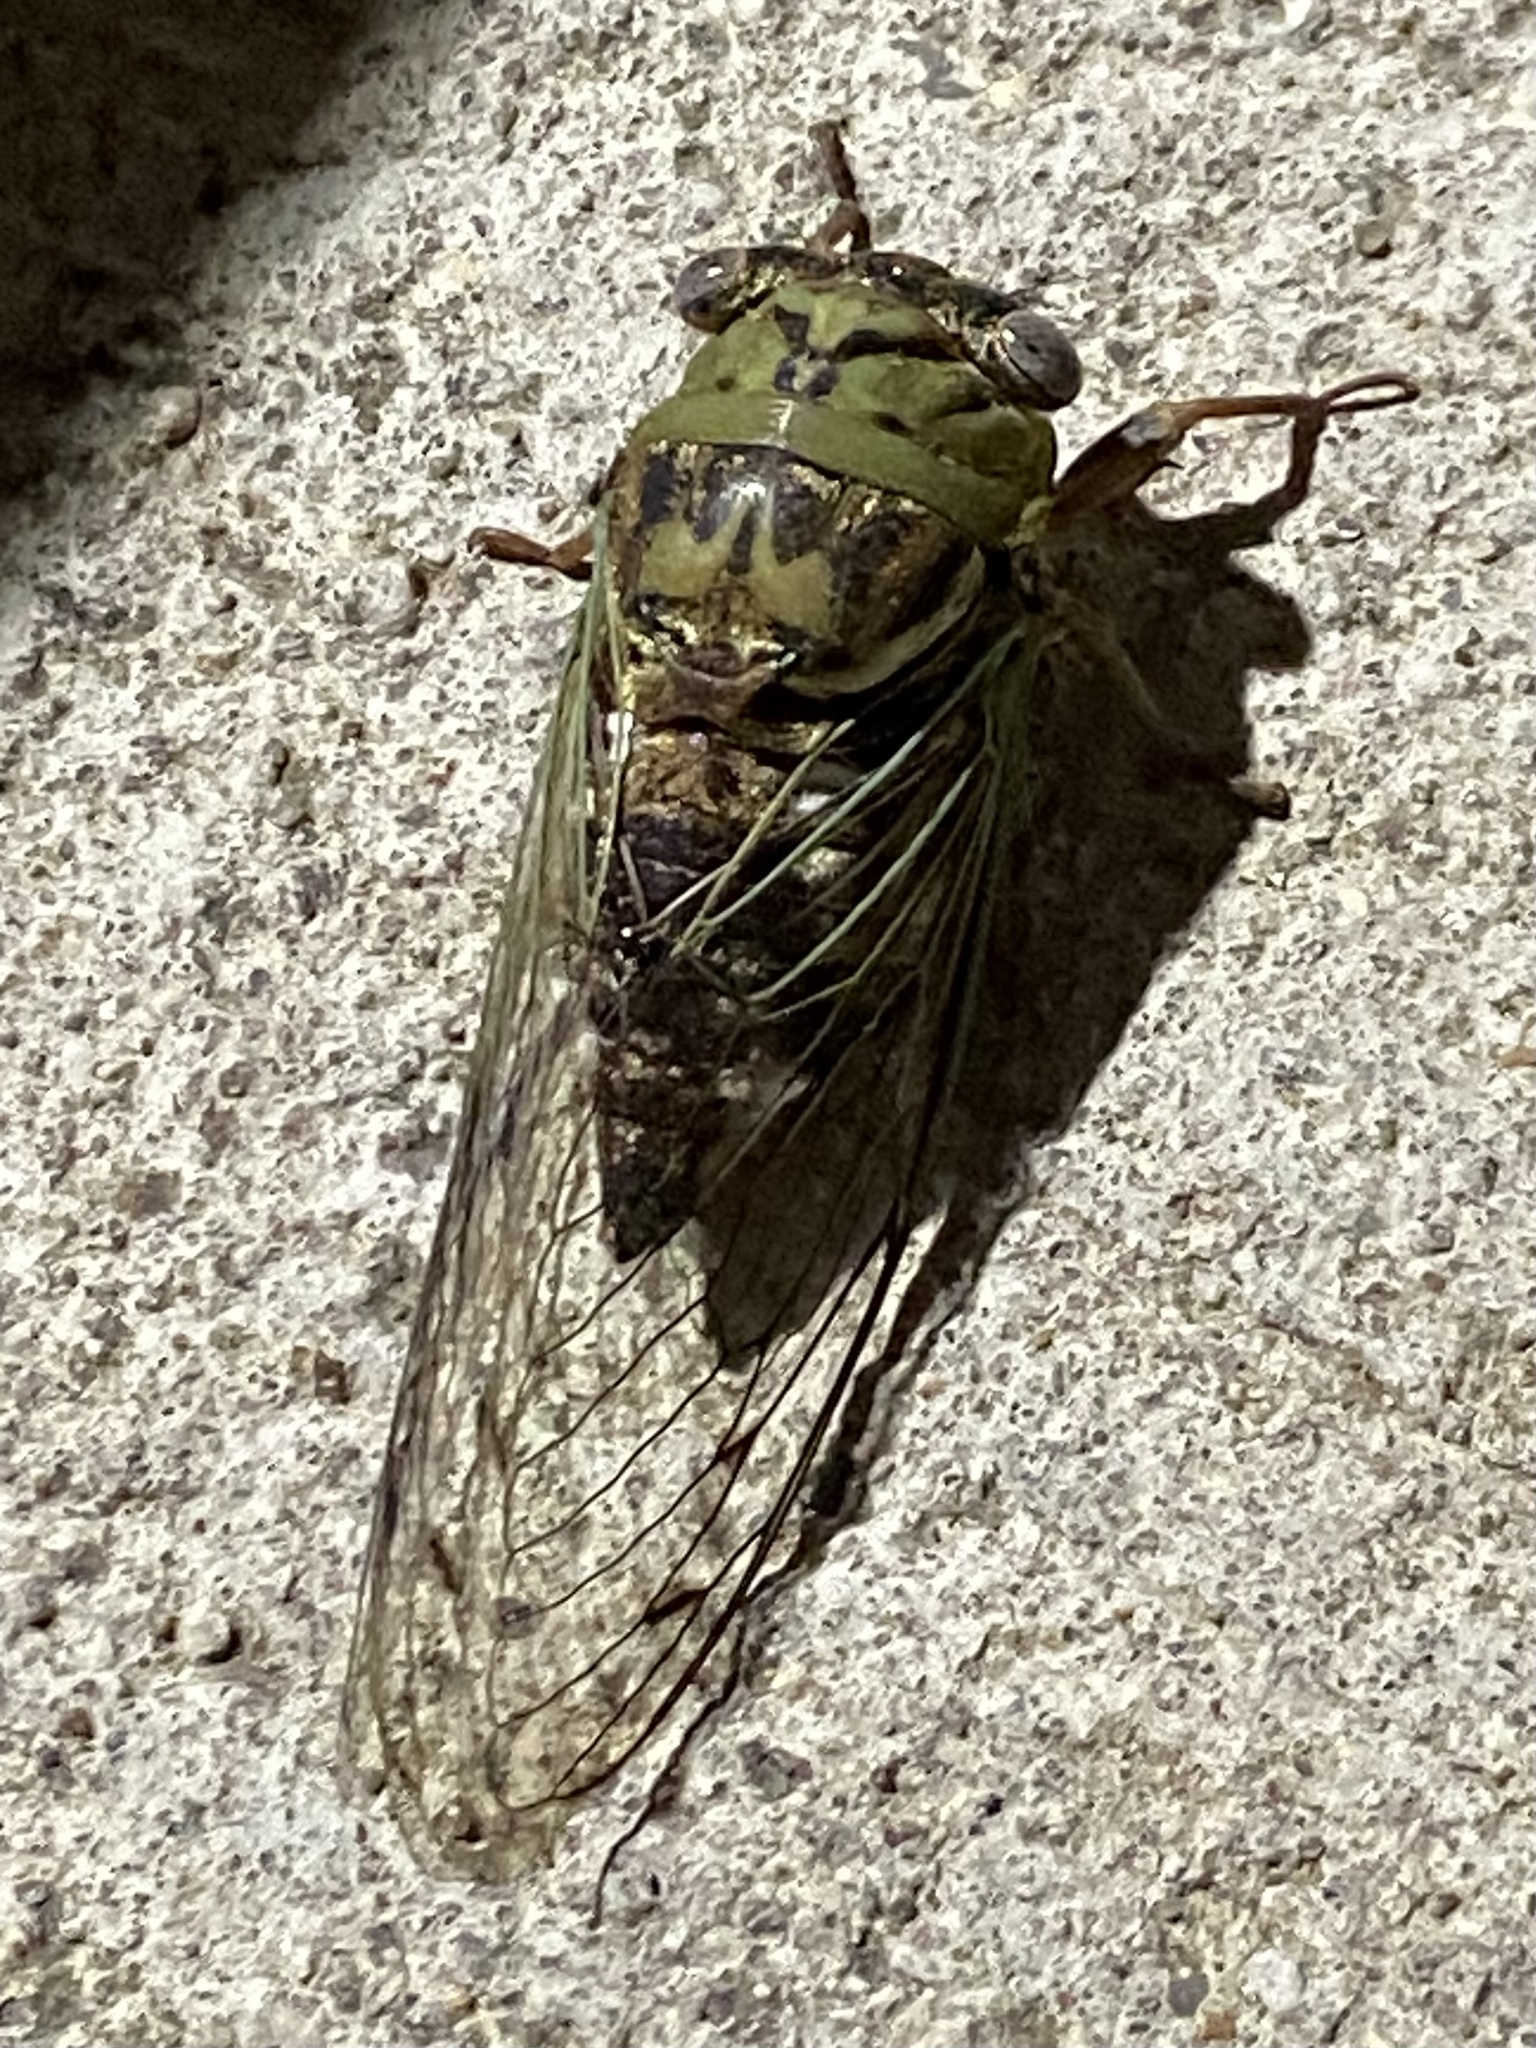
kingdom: Animalia
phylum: Arthropoda
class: Insecta
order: Hemiptera
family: Cicadidae
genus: Megatibicen
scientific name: Megatibicen resh
